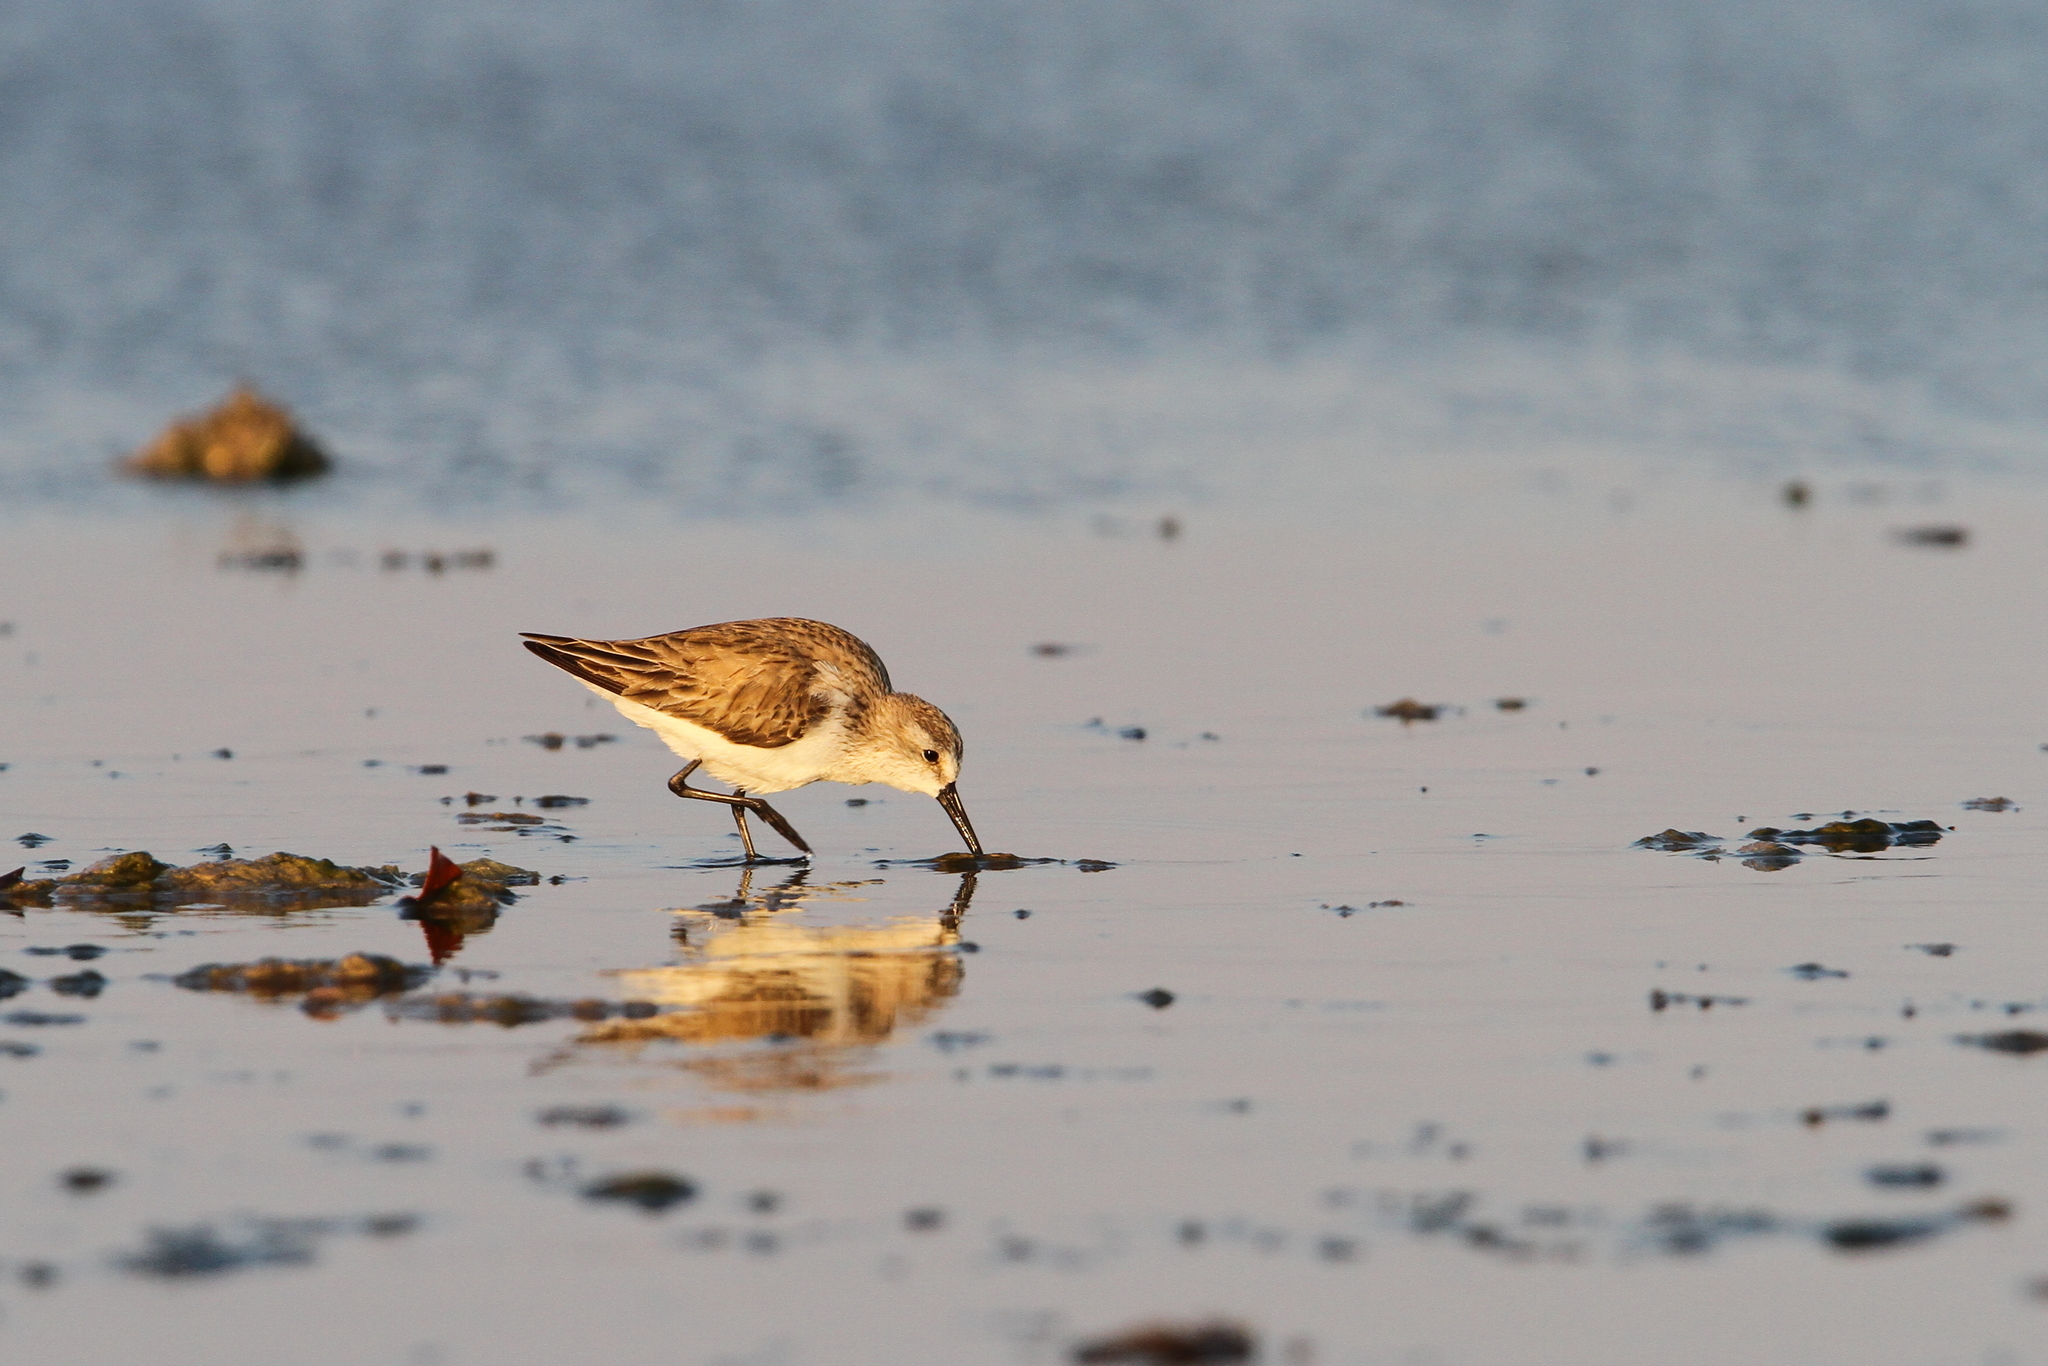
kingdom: Animalia
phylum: Chordata
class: Aves
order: Charadriiformes
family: Scolopacidae
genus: Calidris
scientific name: Calidris minutilla
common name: Least sandpiper
